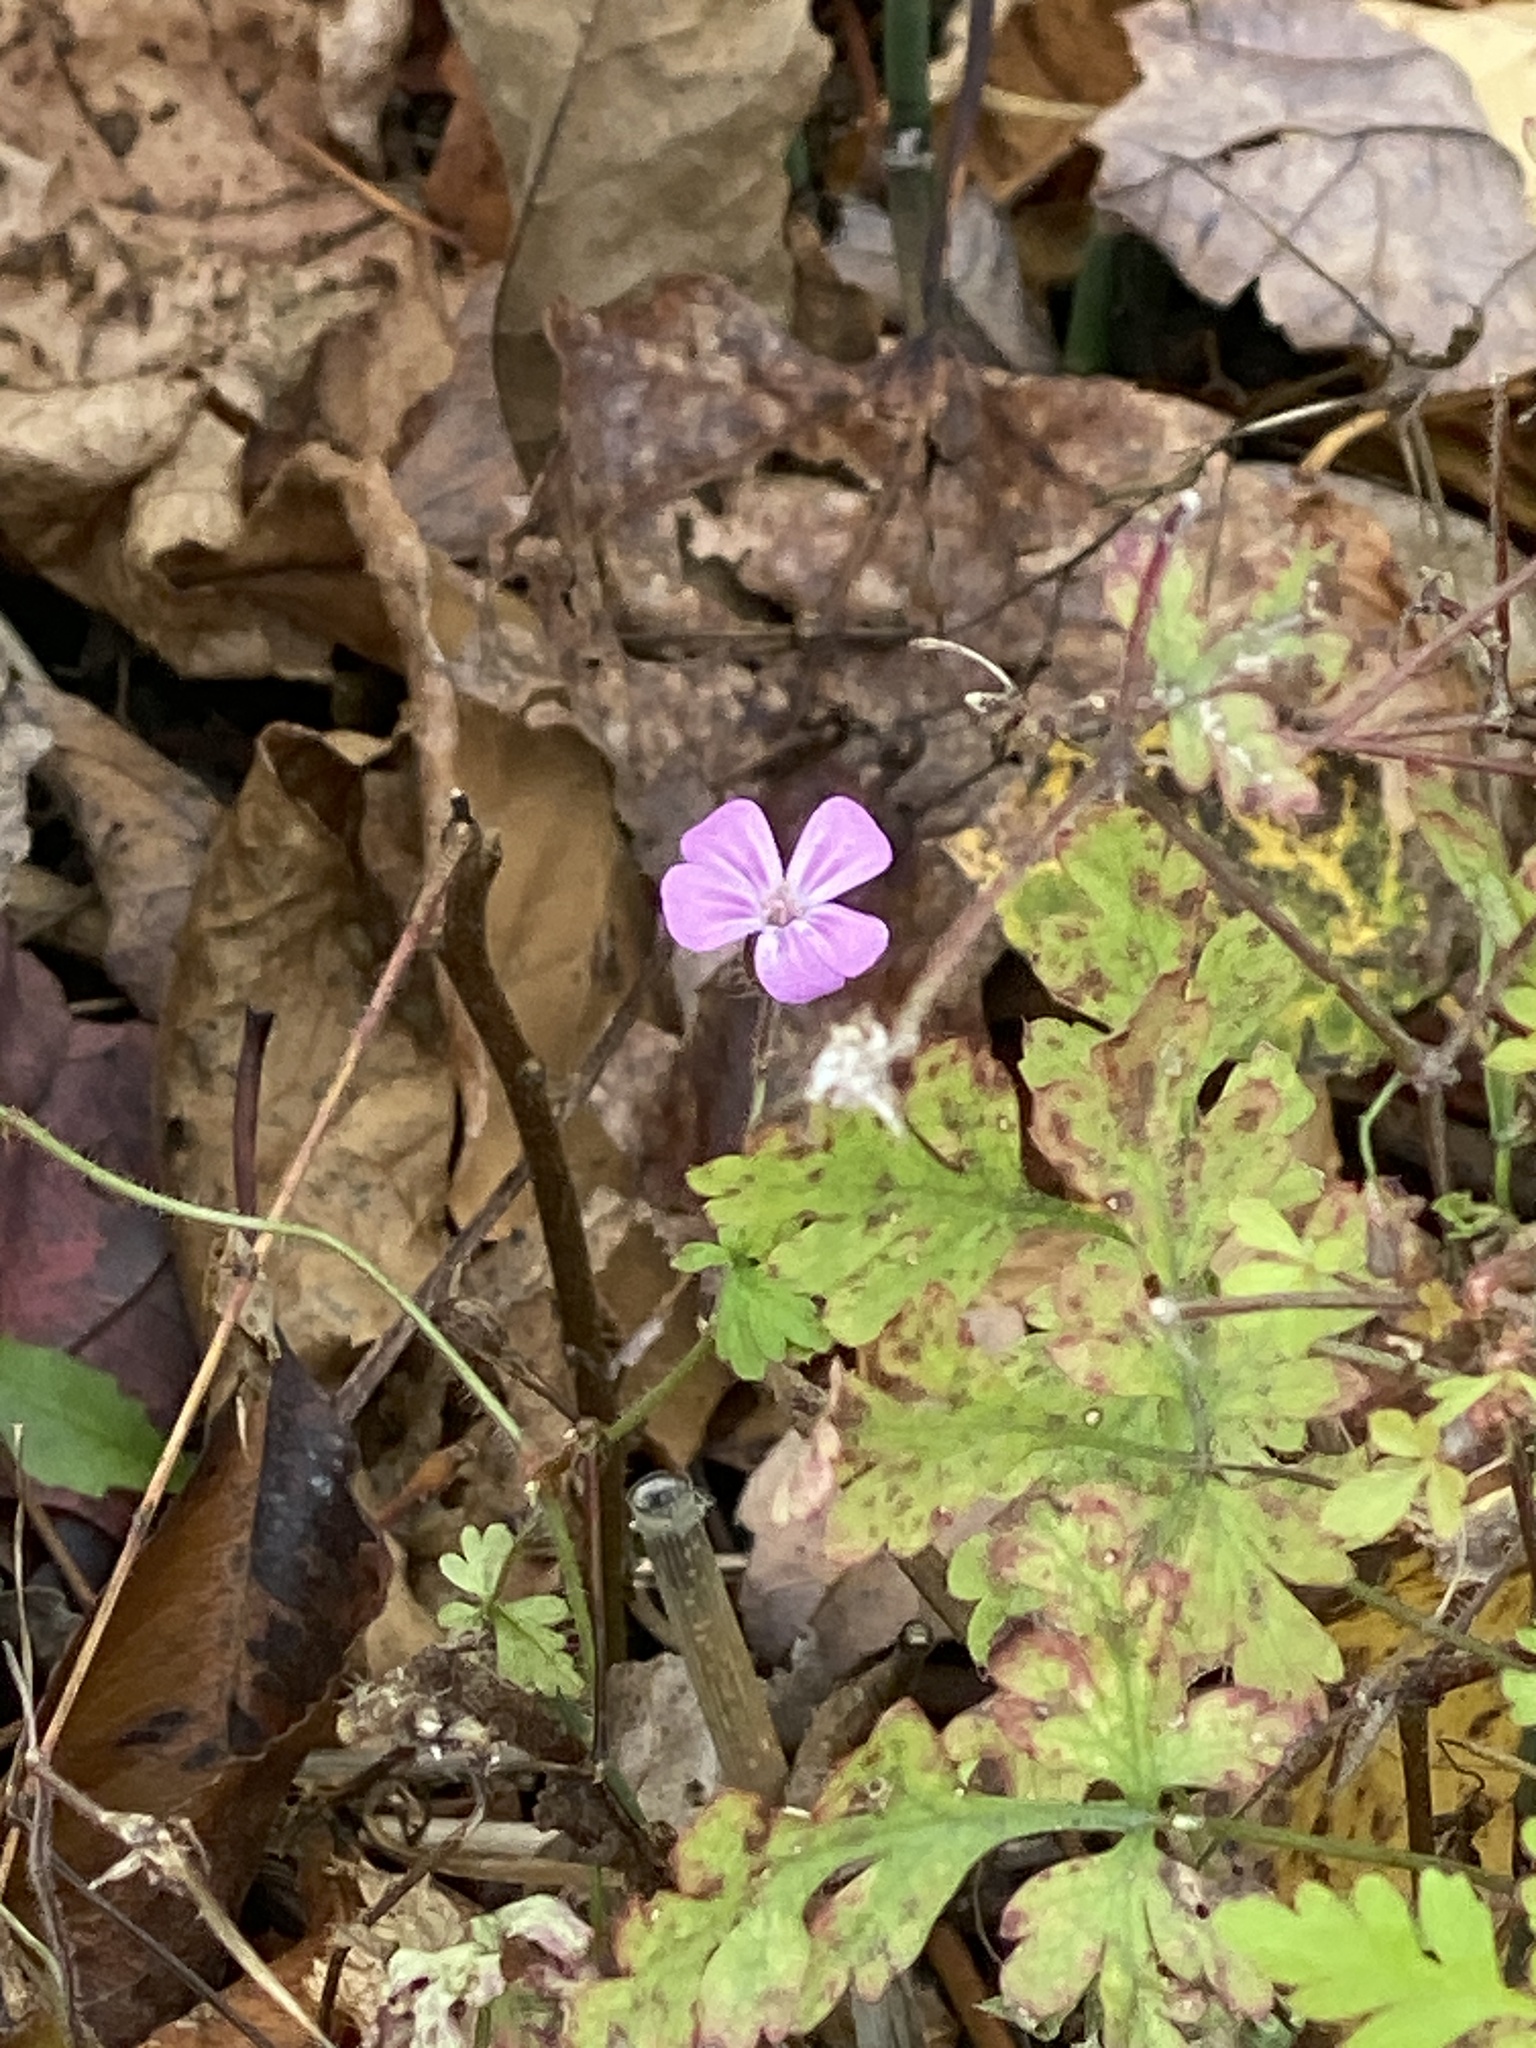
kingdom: Plantae
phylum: Tracheophyta
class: Magnoliopsida
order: Geraniales
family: Geraniaceae
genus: Geranium
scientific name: Geranium robertianum
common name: Herb-robert
